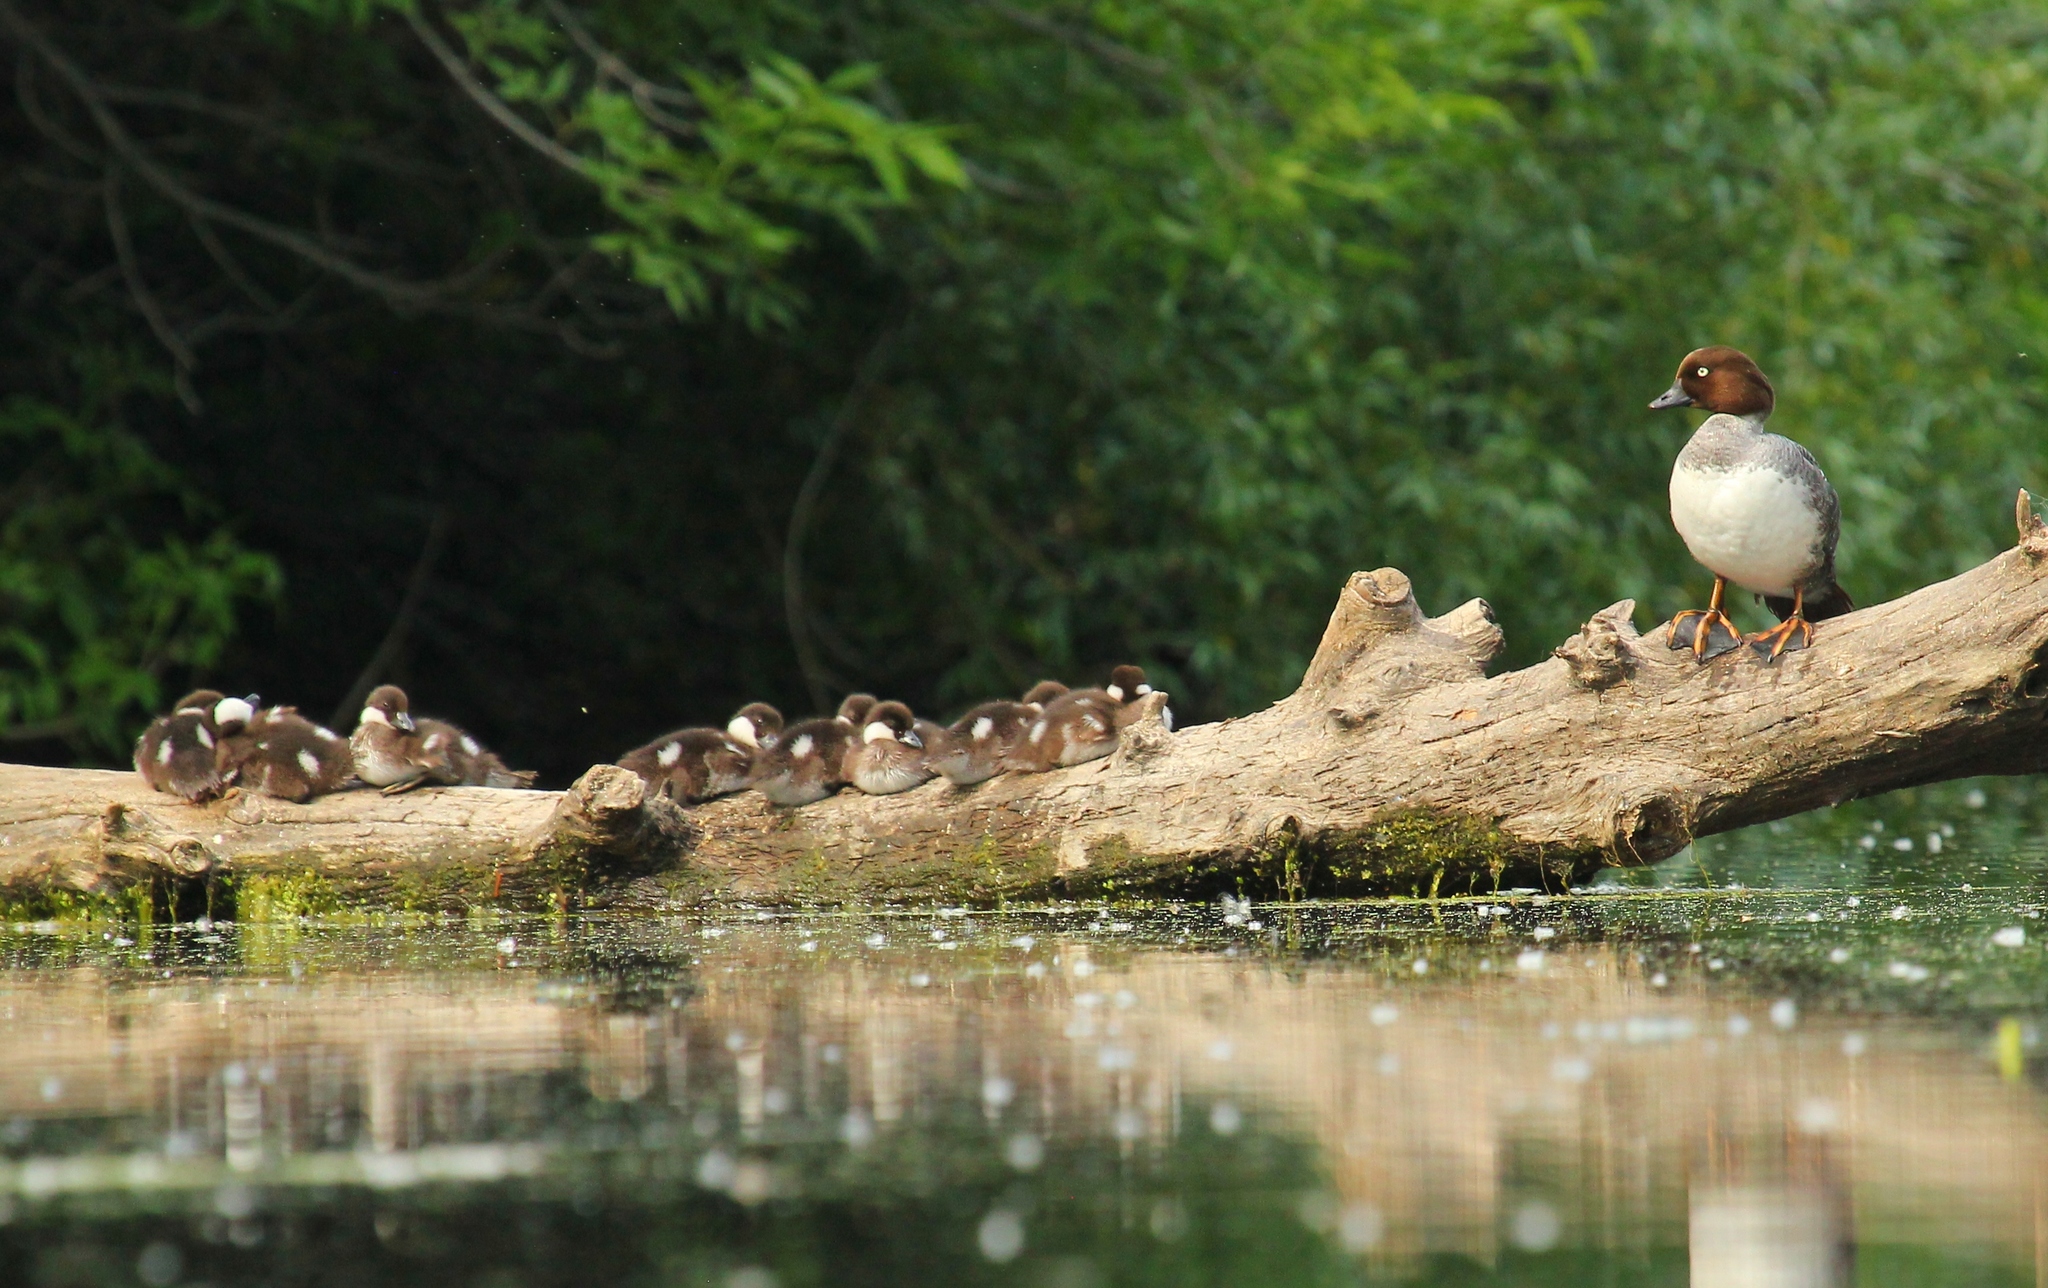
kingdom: Animalia
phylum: Chordata
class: Aves
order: Anseriformes
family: Anatidae
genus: Bucephala
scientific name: Bucephala clangula
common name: Common goldeneye
